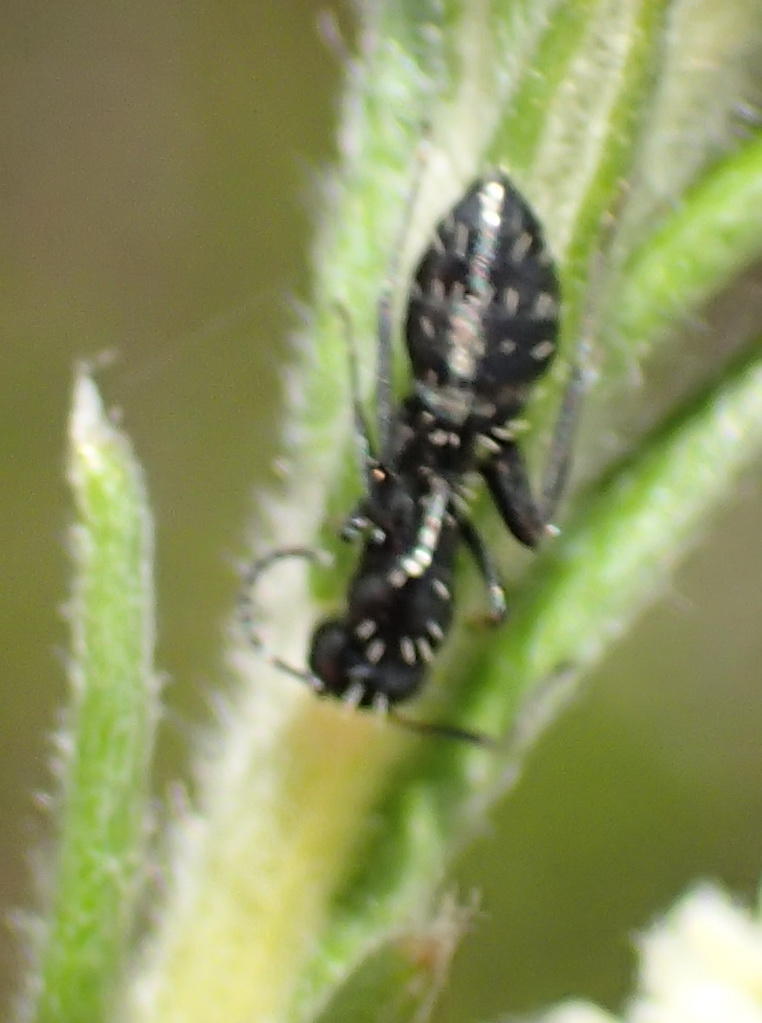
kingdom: Animalia
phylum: Arthropoda
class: Insecta
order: Hymenoptera
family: Formicidae
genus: Camponotus
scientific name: Camponotus niveosetosus
